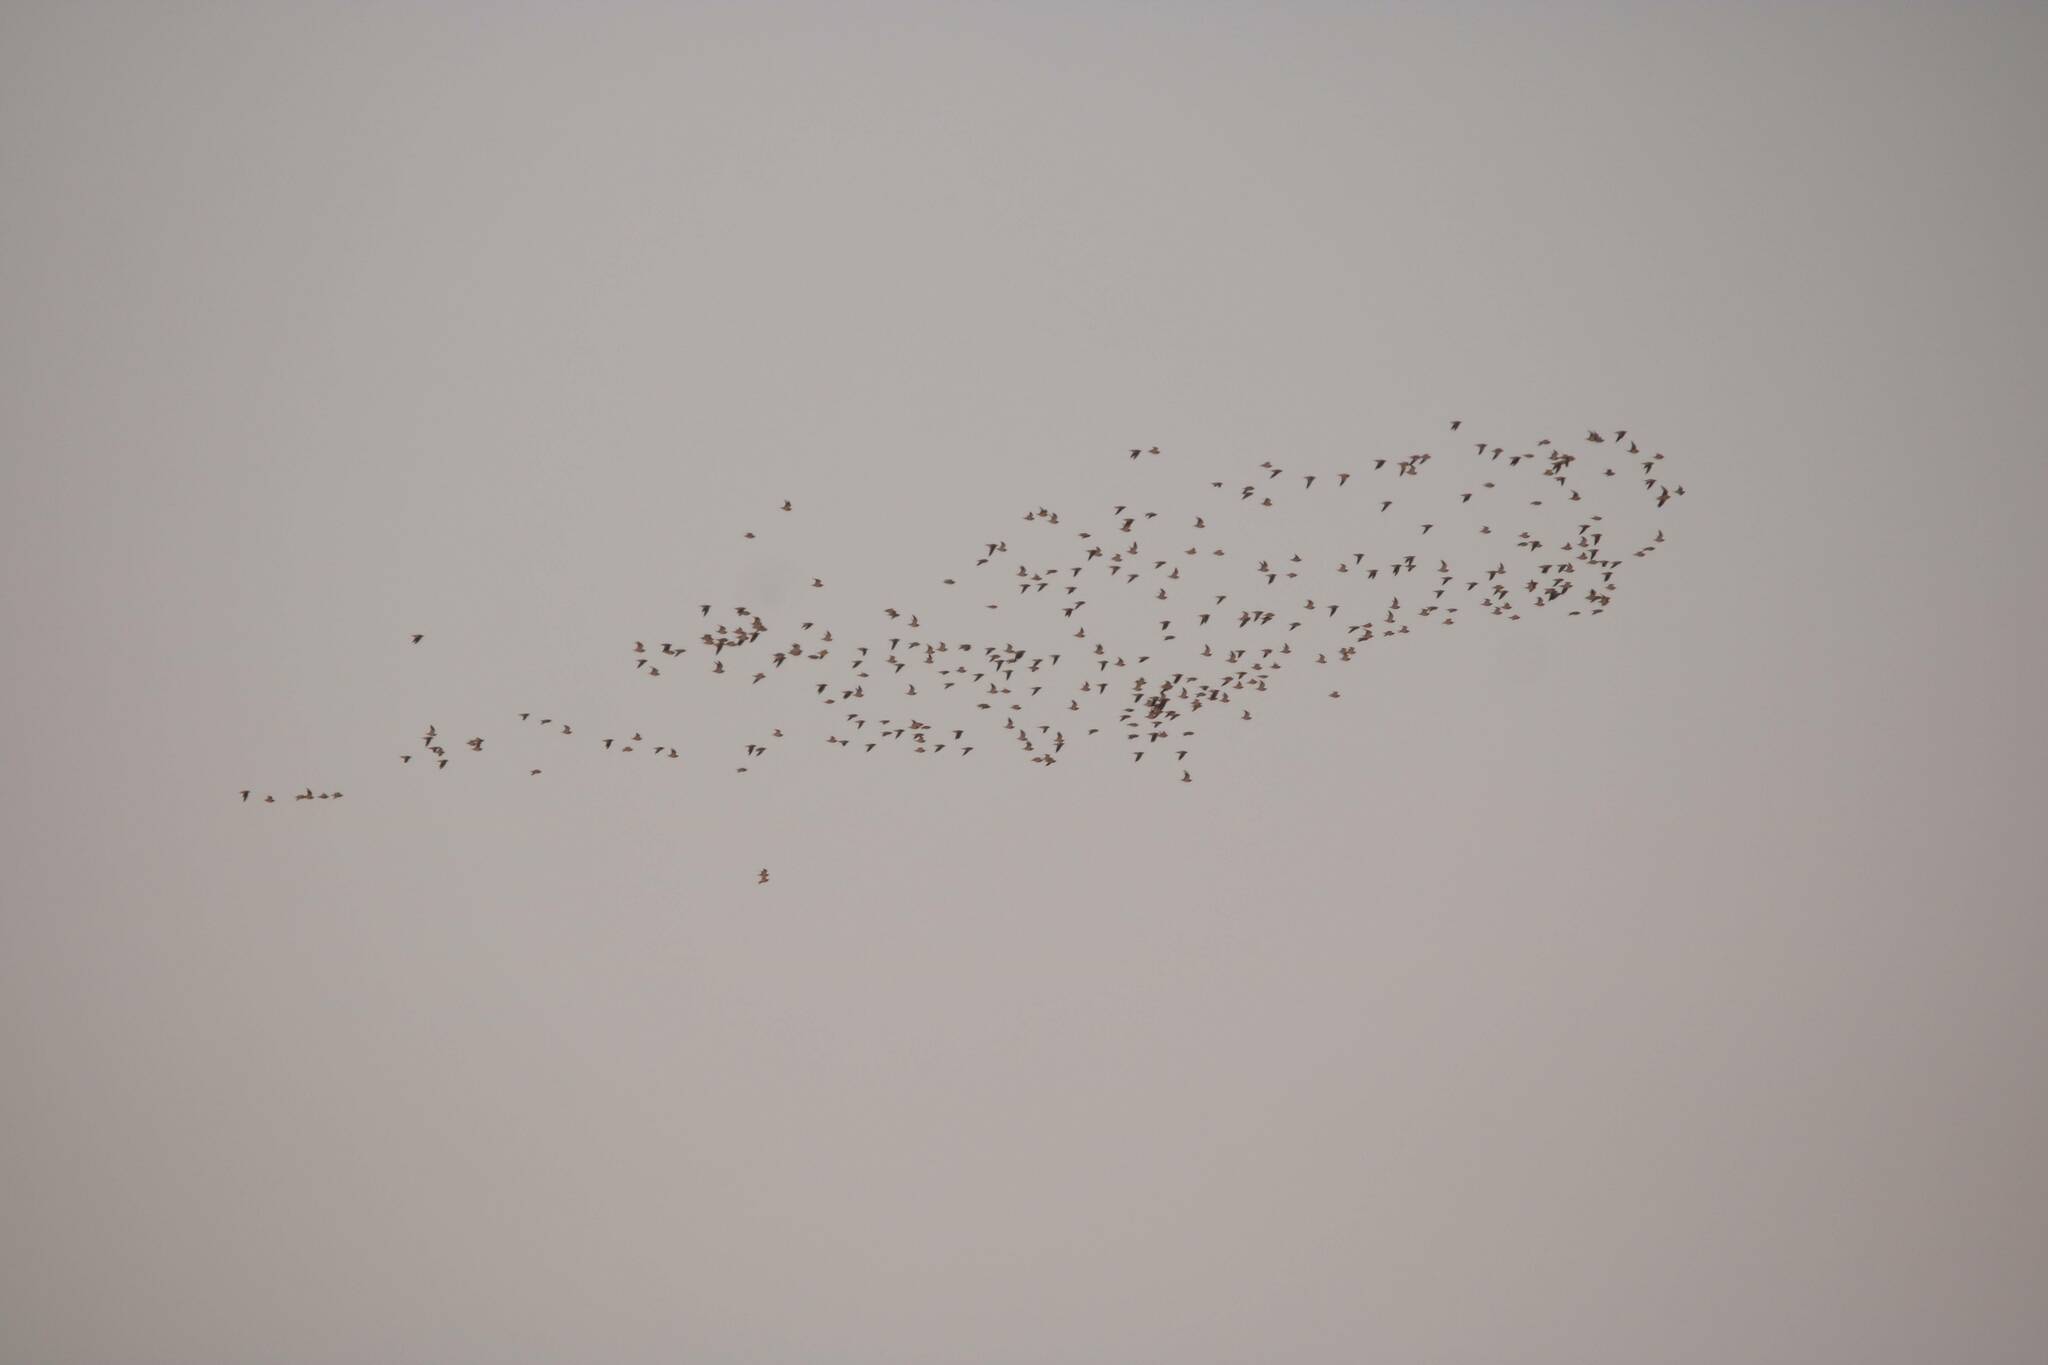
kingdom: Animalia
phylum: Chordata
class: Aves
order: Pteroclidiformes
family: Pteroclididae
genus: Pterocles
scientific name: Pterocles orientalis
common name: Black-bellied sandgrouse
